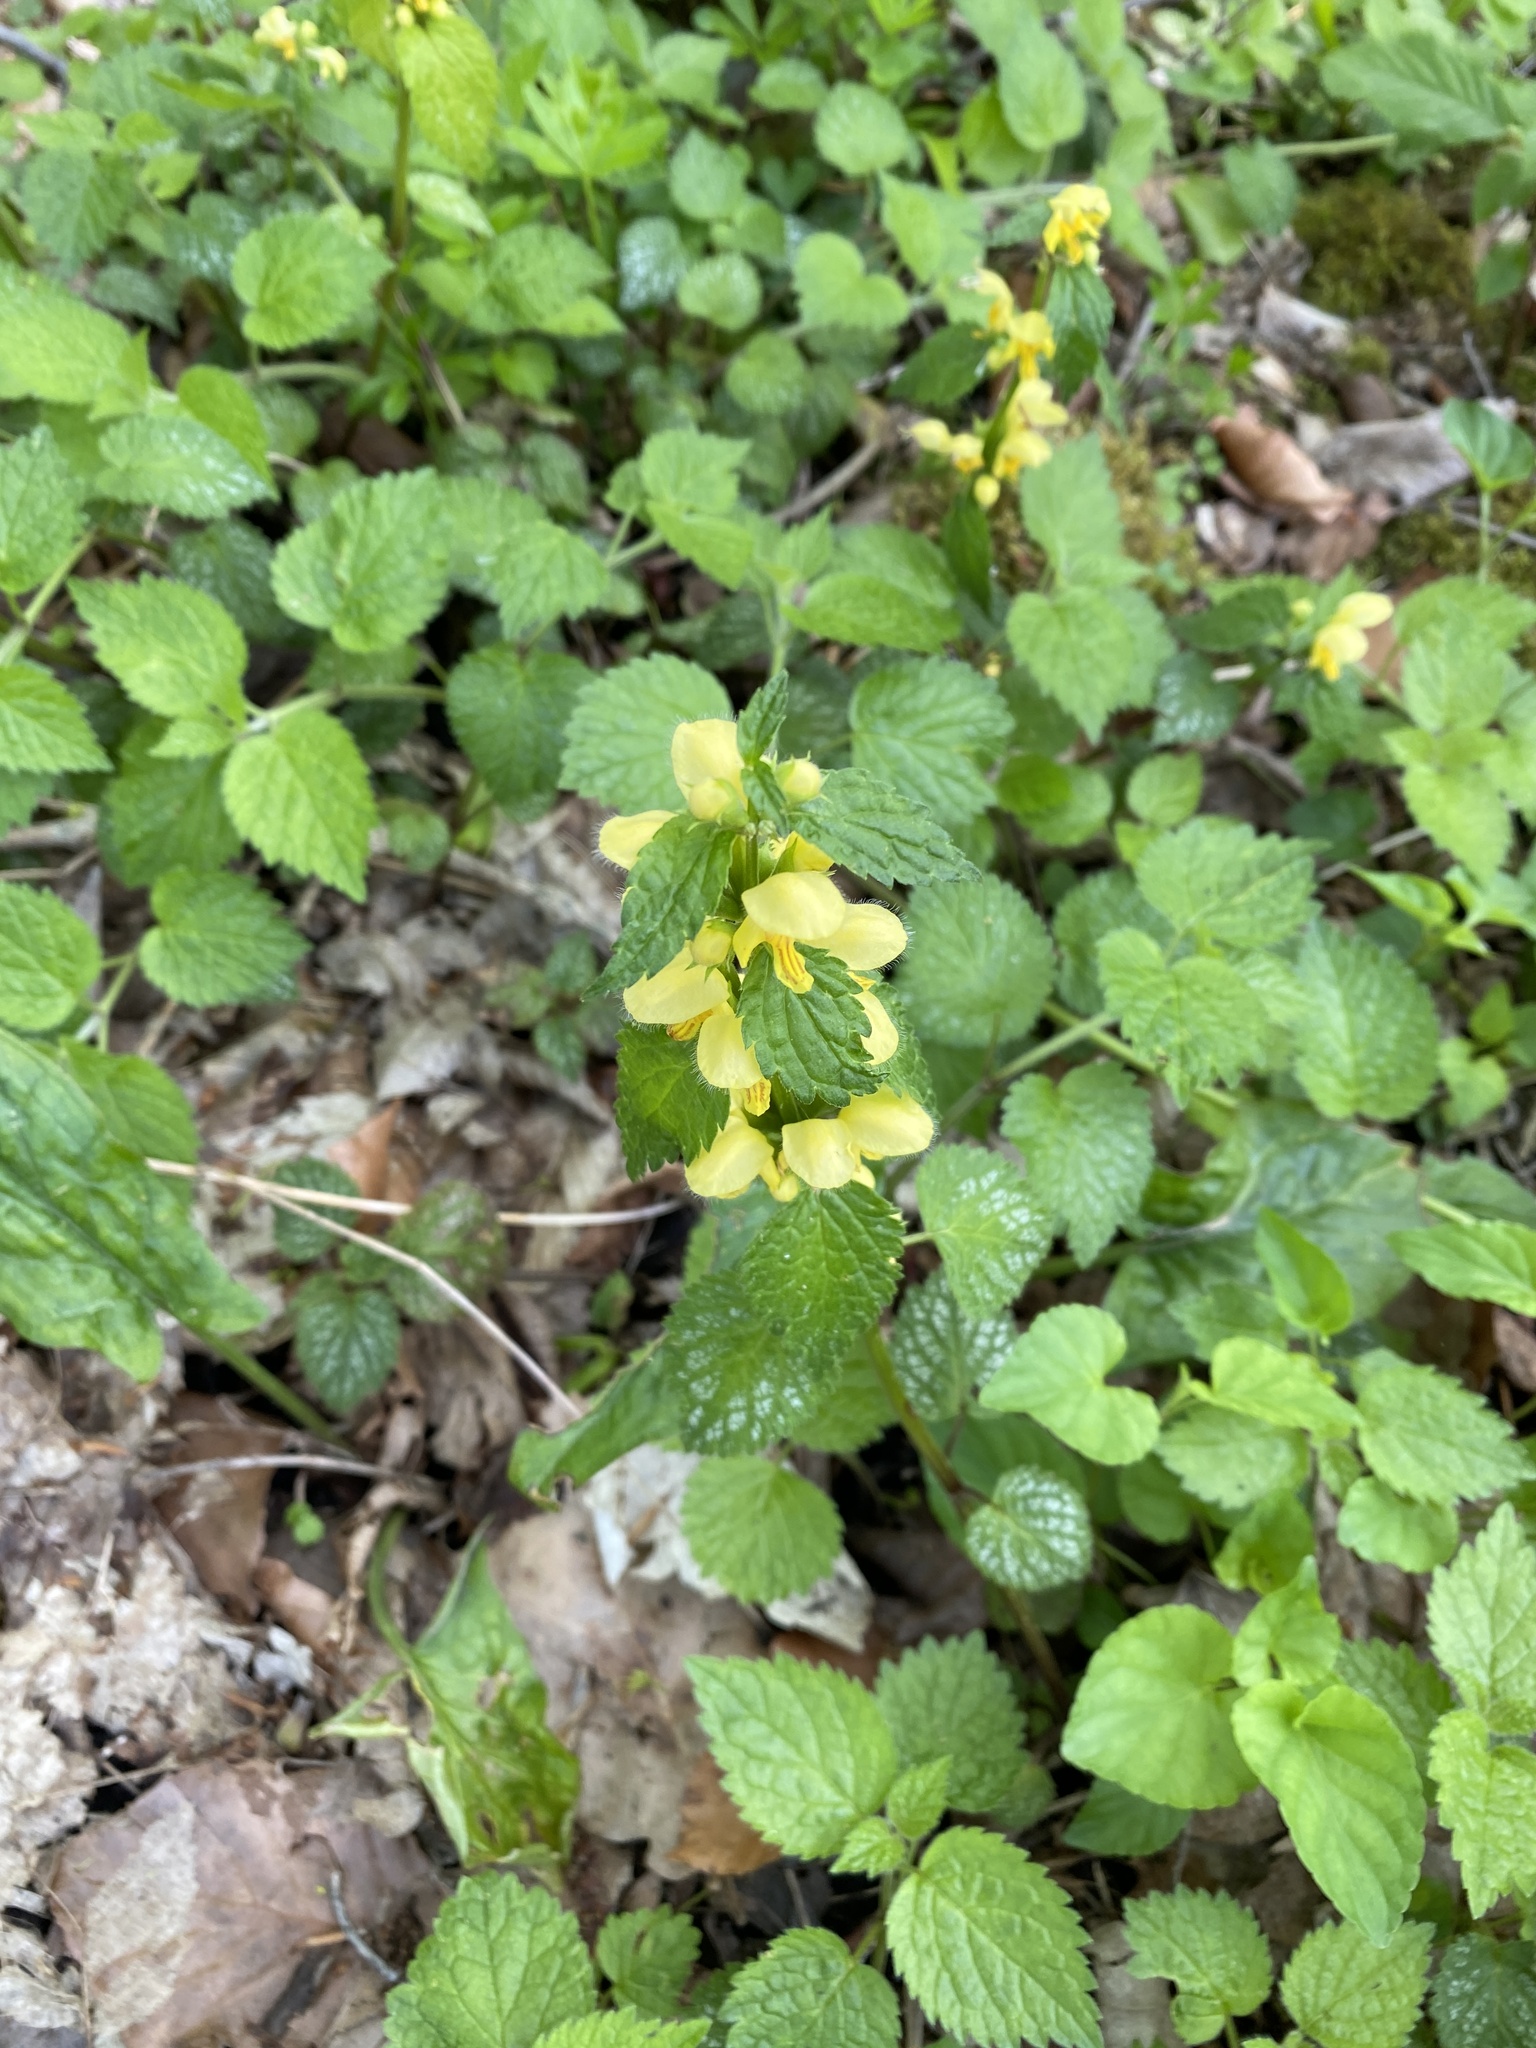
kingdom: Plantae
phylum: Tracheophyta
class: Magnoliopsida
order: Lamiales
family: Lamiaceae
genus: Lamium
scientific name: Lamium galeobdolon
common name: Yellow archangel
